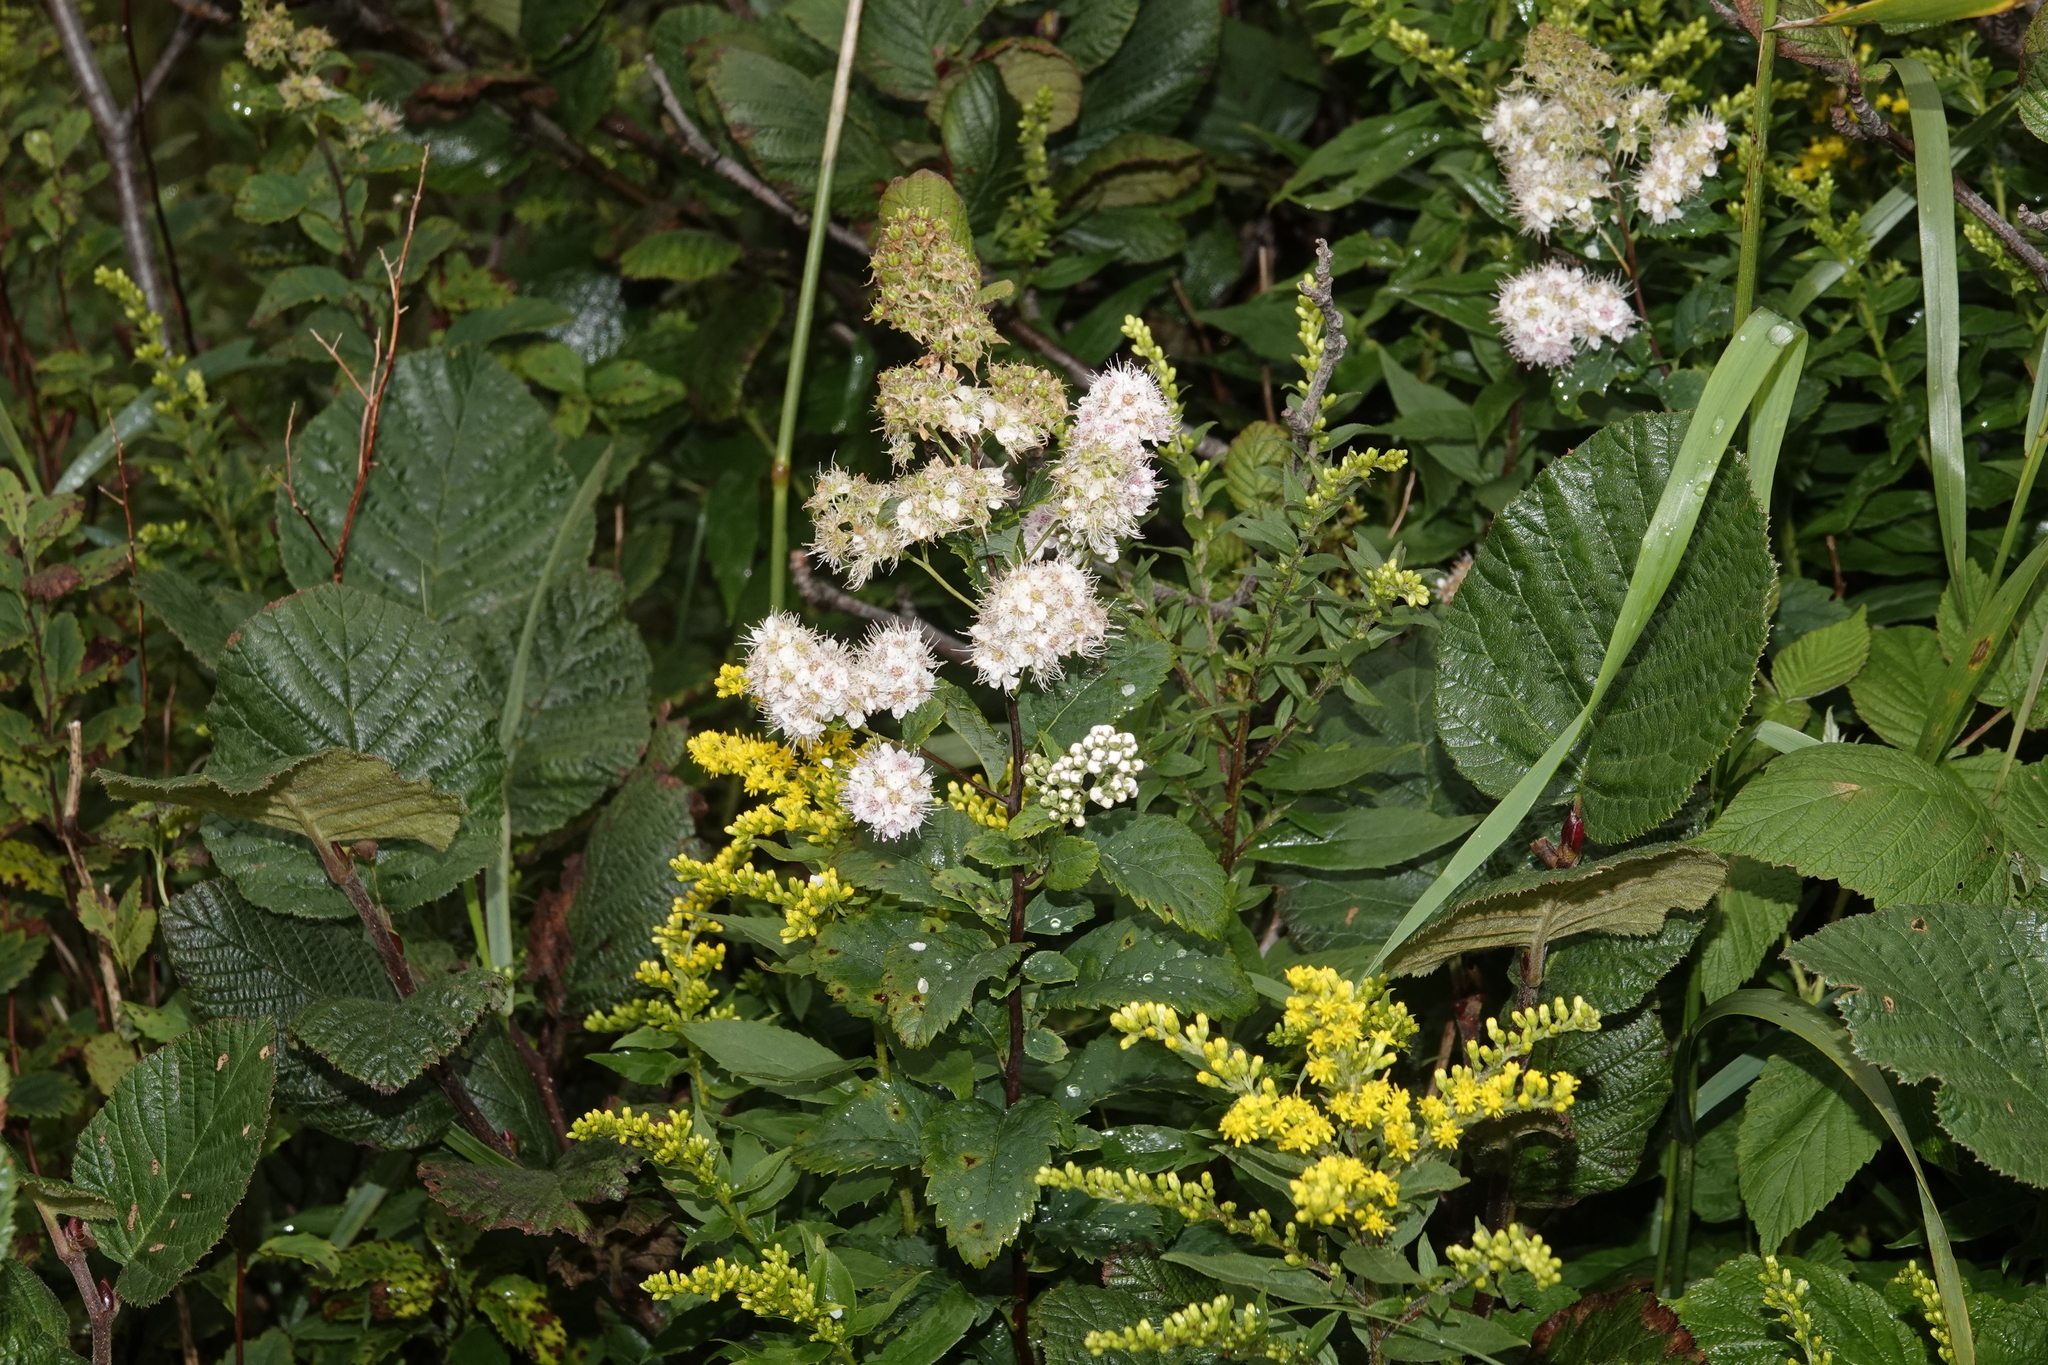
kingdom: Plantae
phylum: Tracheophyta
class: Magnoliopsida
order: Rosales
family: Rosaceae
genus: Spiraea
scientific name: Spiraea alba
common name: Pale bridewort
